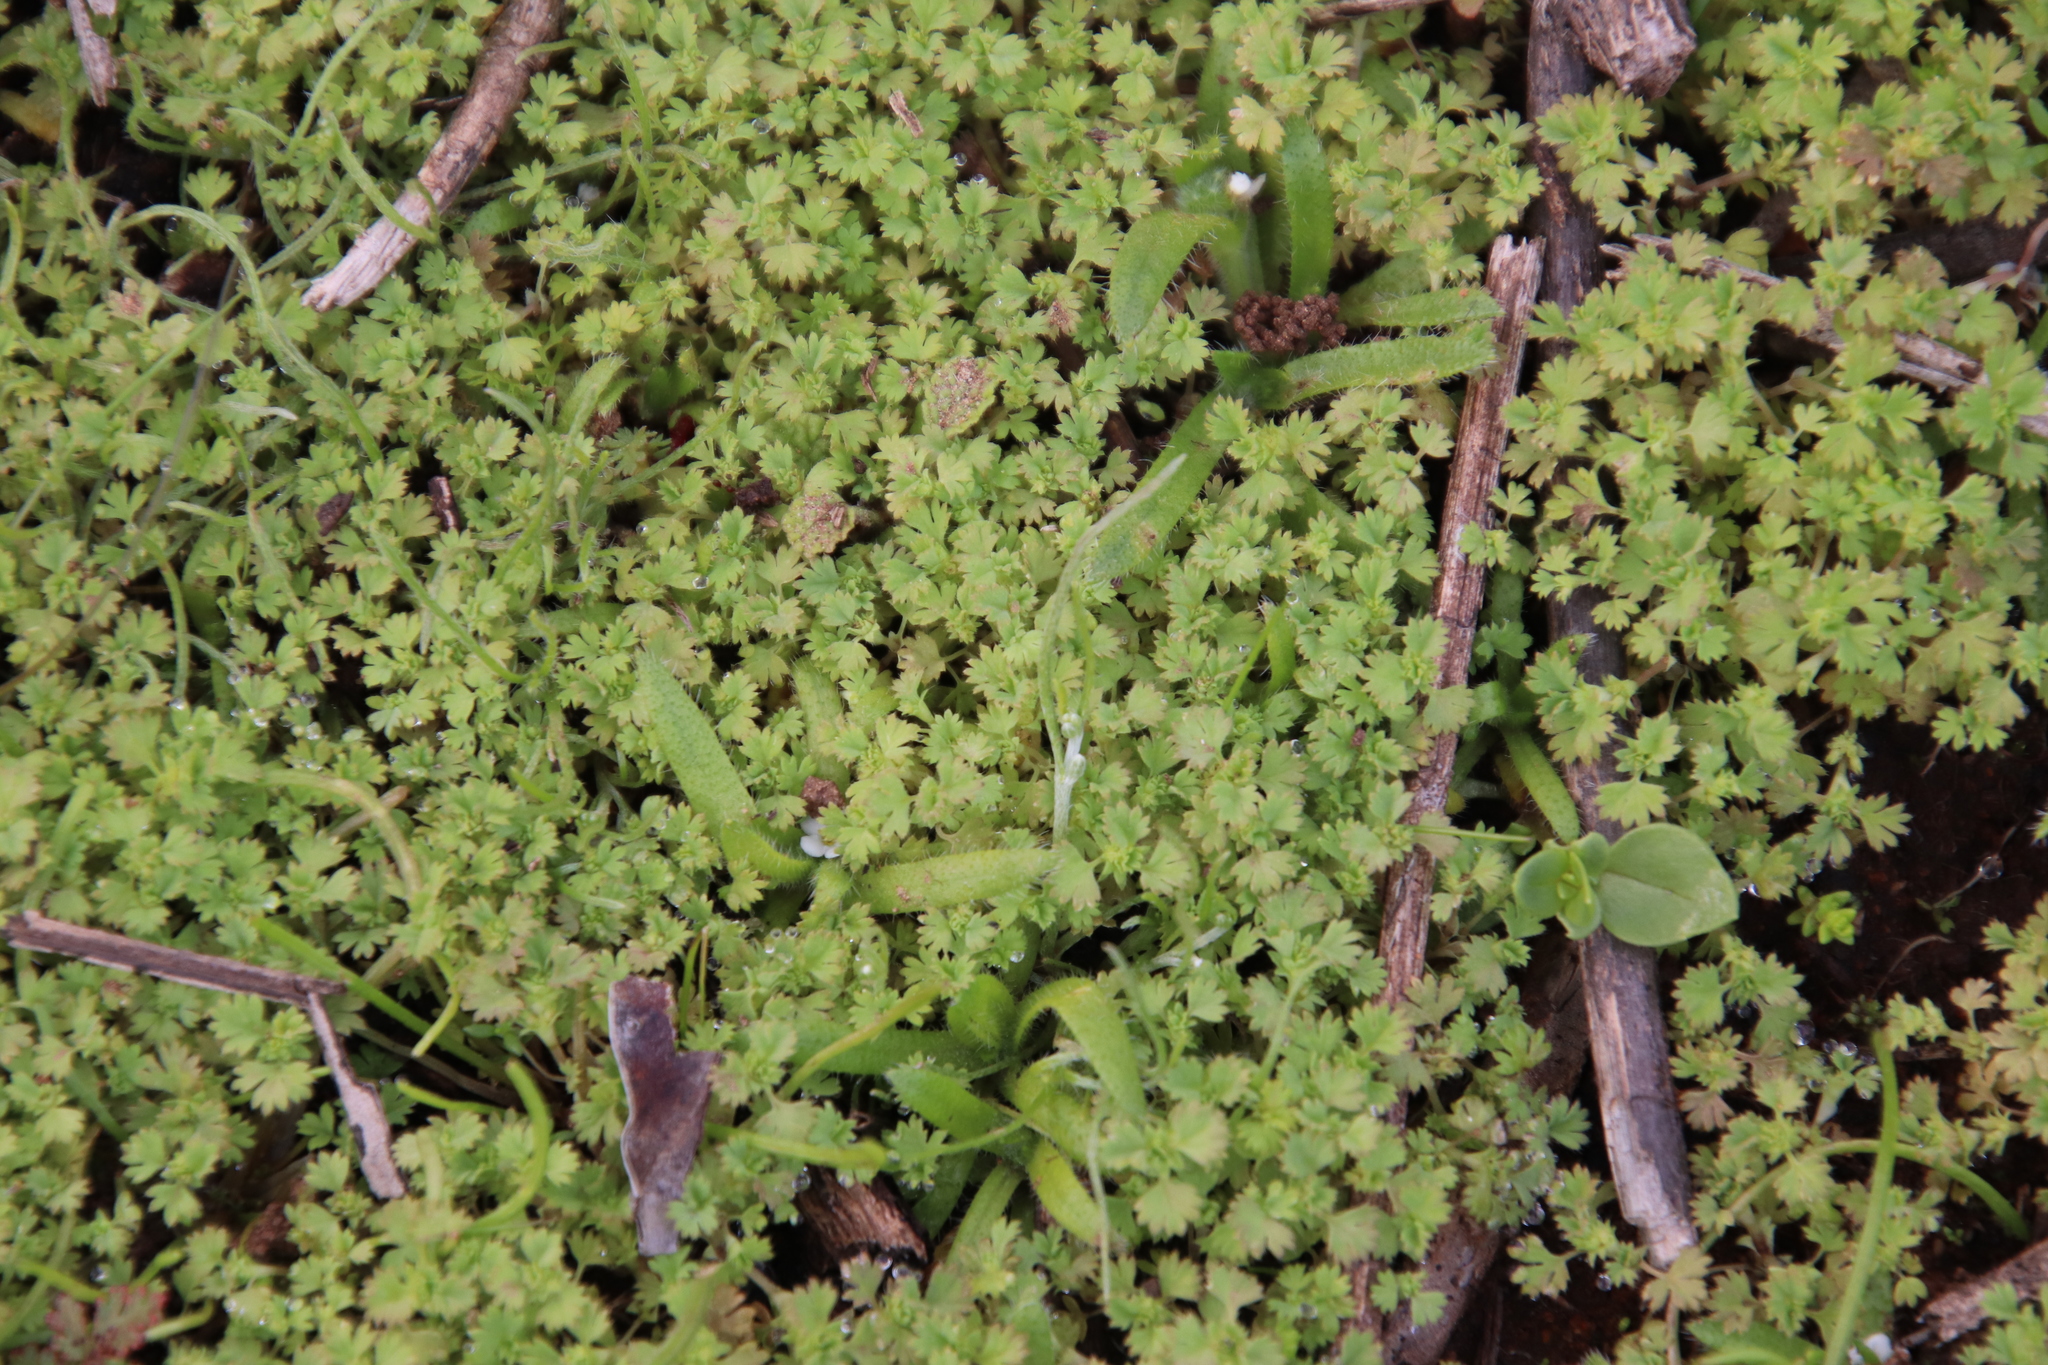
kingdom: Plantae
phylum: Tracheophyta
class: Magnoliopsida
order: Rosales
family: Rosaceae
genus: Aphanes
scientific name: Aphanes arvensis
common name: Parsley-piert
